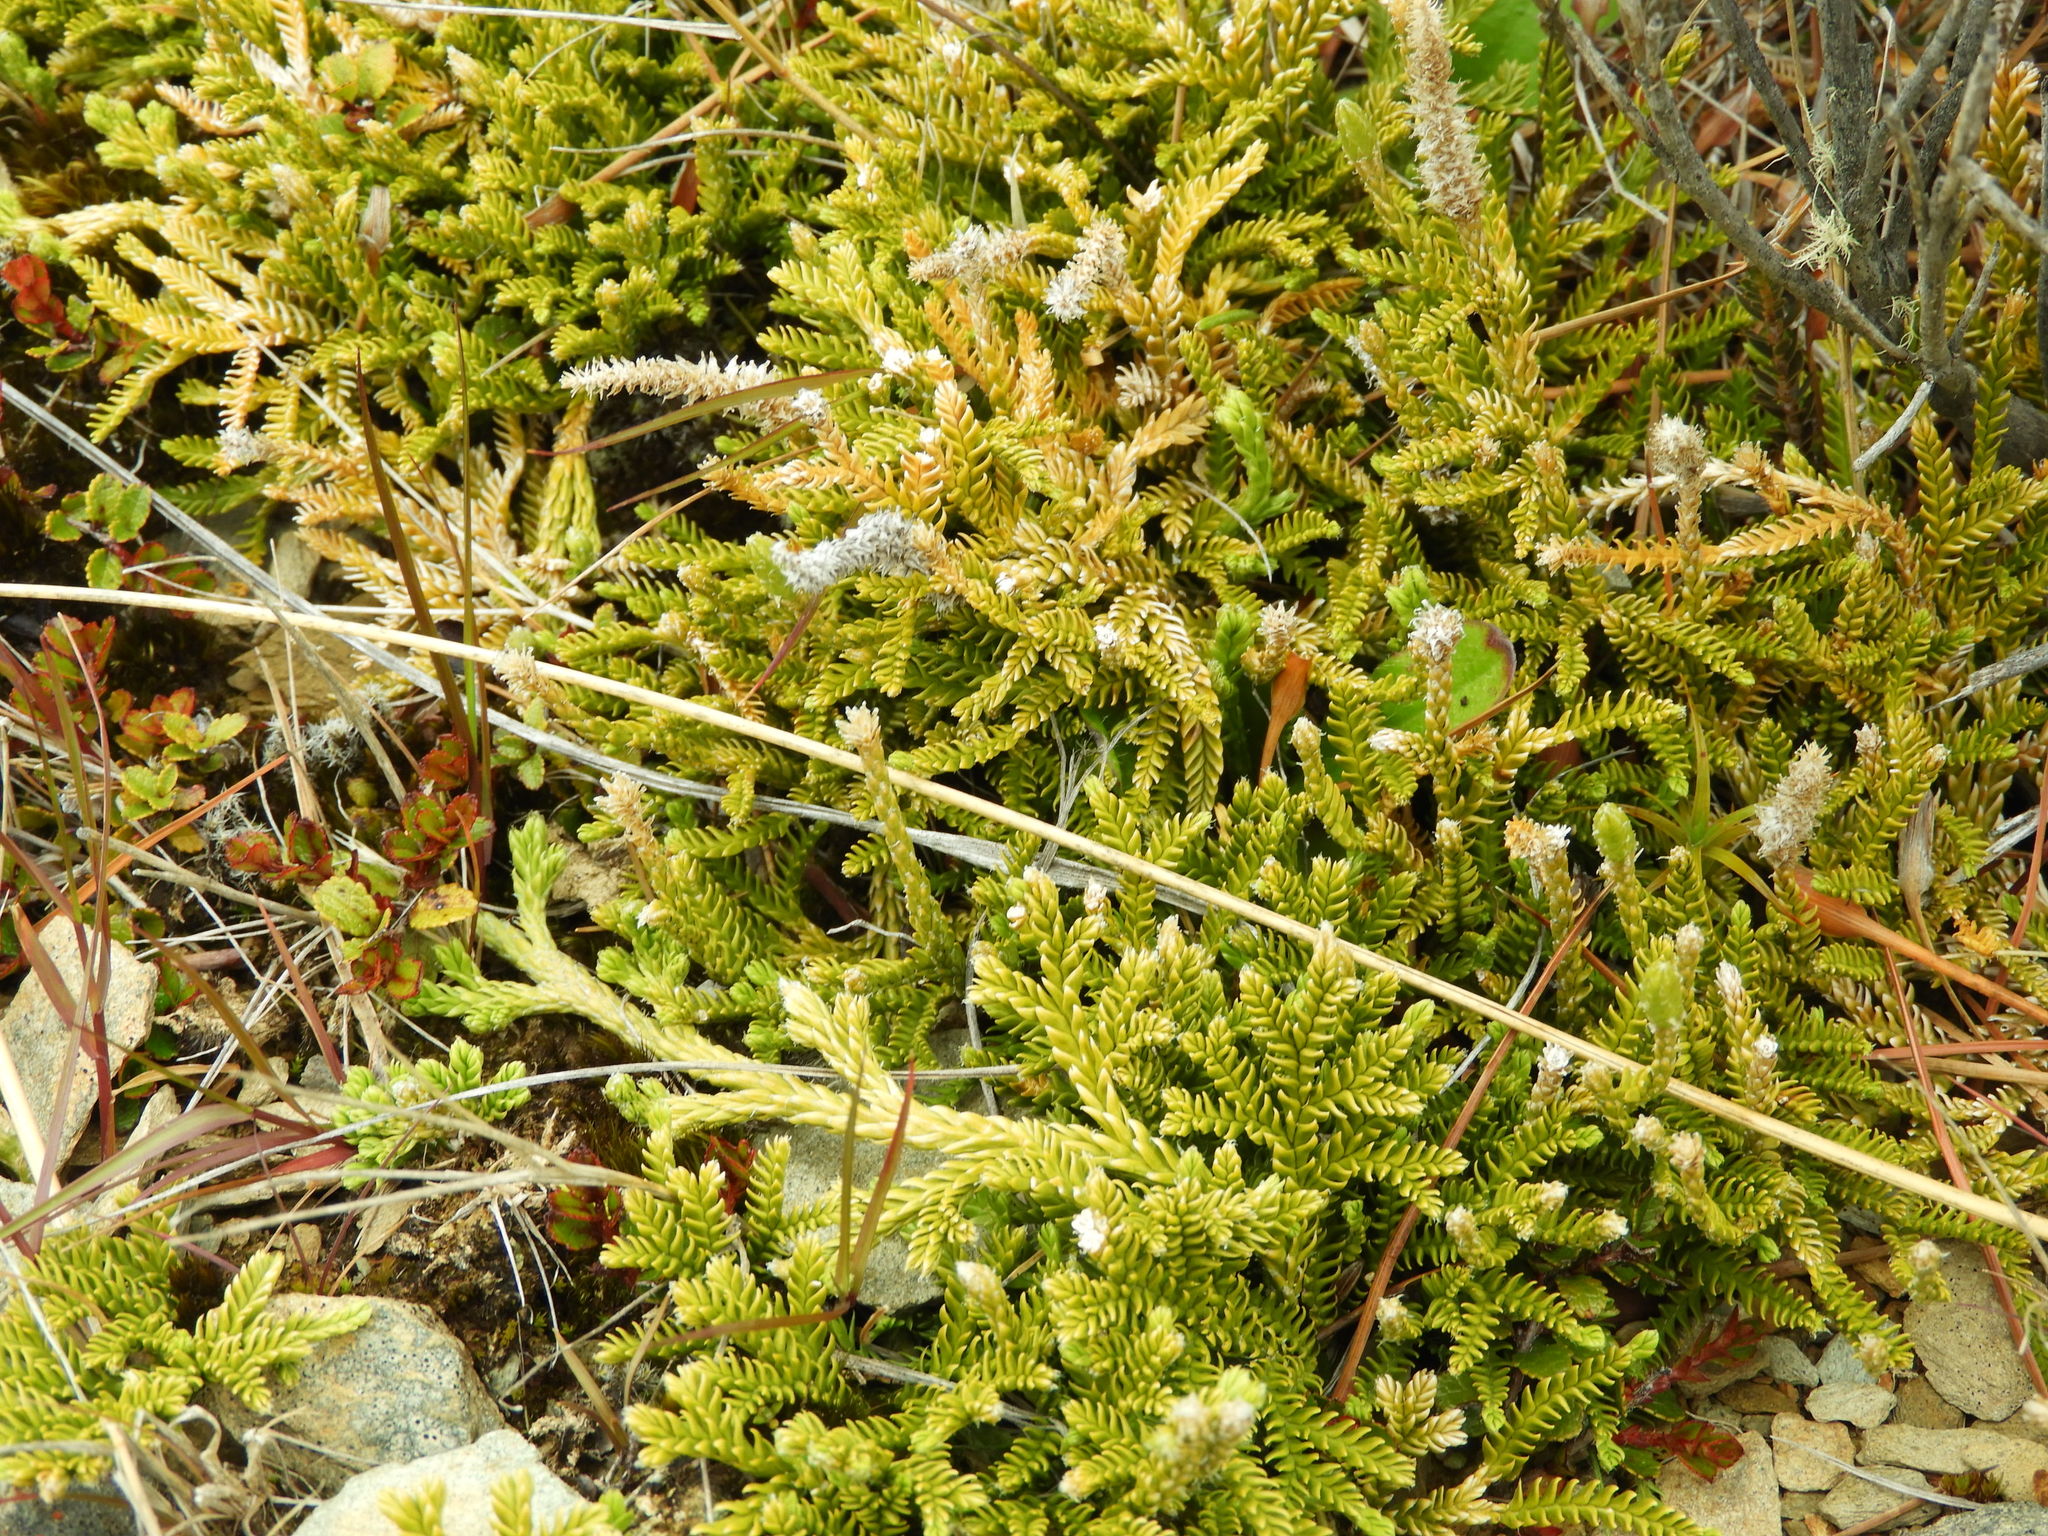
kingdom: Plantae
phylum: Tracheophyta
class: Lycopodiopsida
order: Lycopodiales
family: Lycopodiaceae
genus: Diphasium
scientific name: Diphasium scariosum
